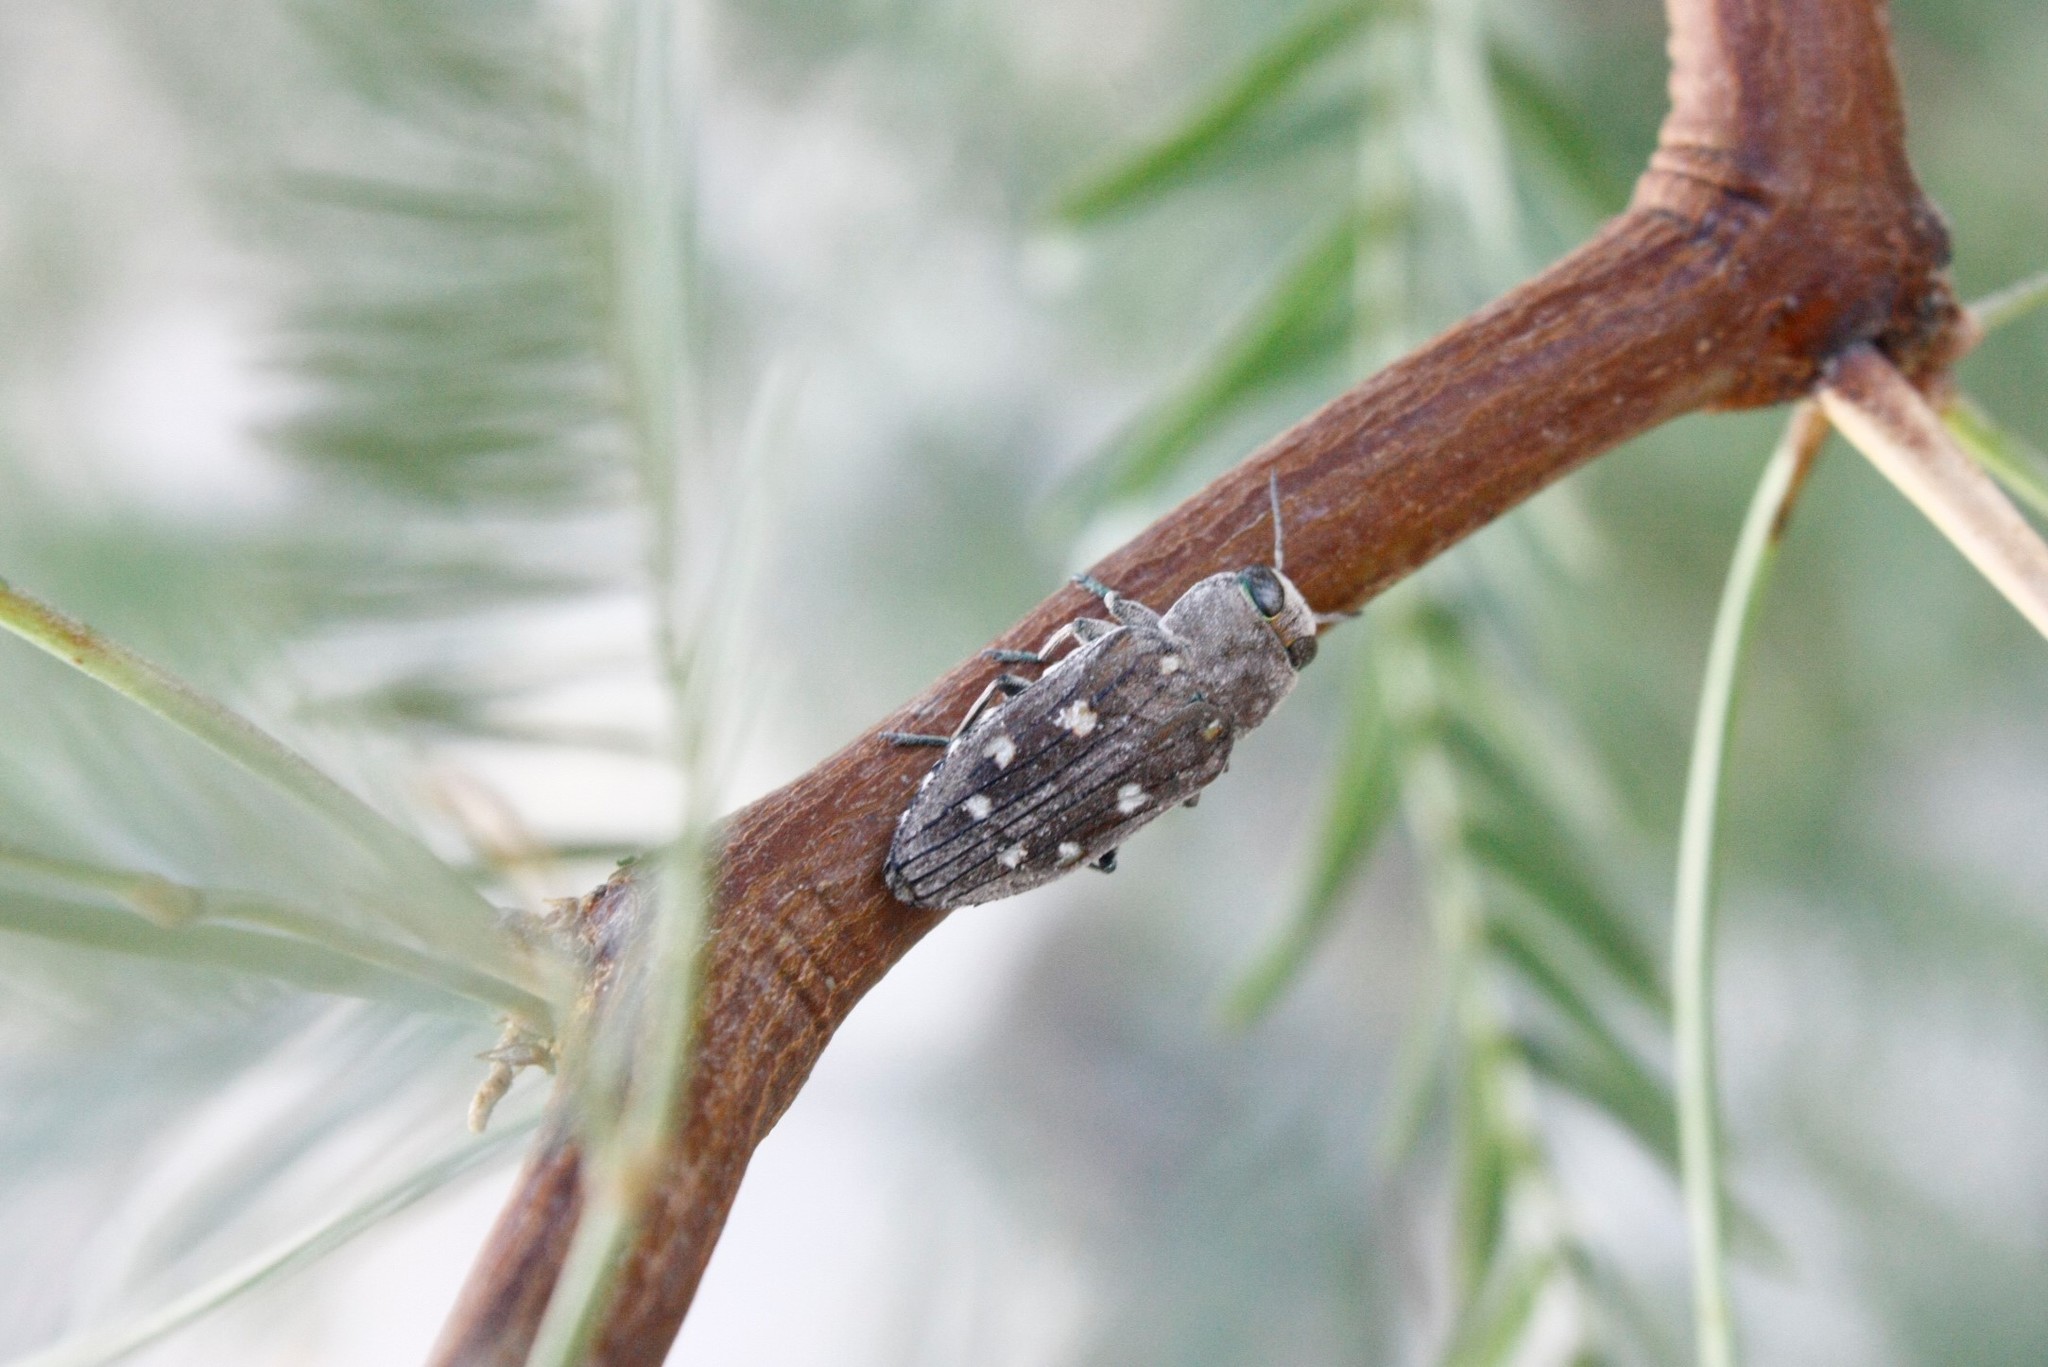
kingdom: Animalia
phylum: Arthropoda
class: Insecta
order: Coleoptera
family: Buprestidae
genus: Chrysobothris
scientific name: Chrysobothris octocola
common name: Jewel beetle
